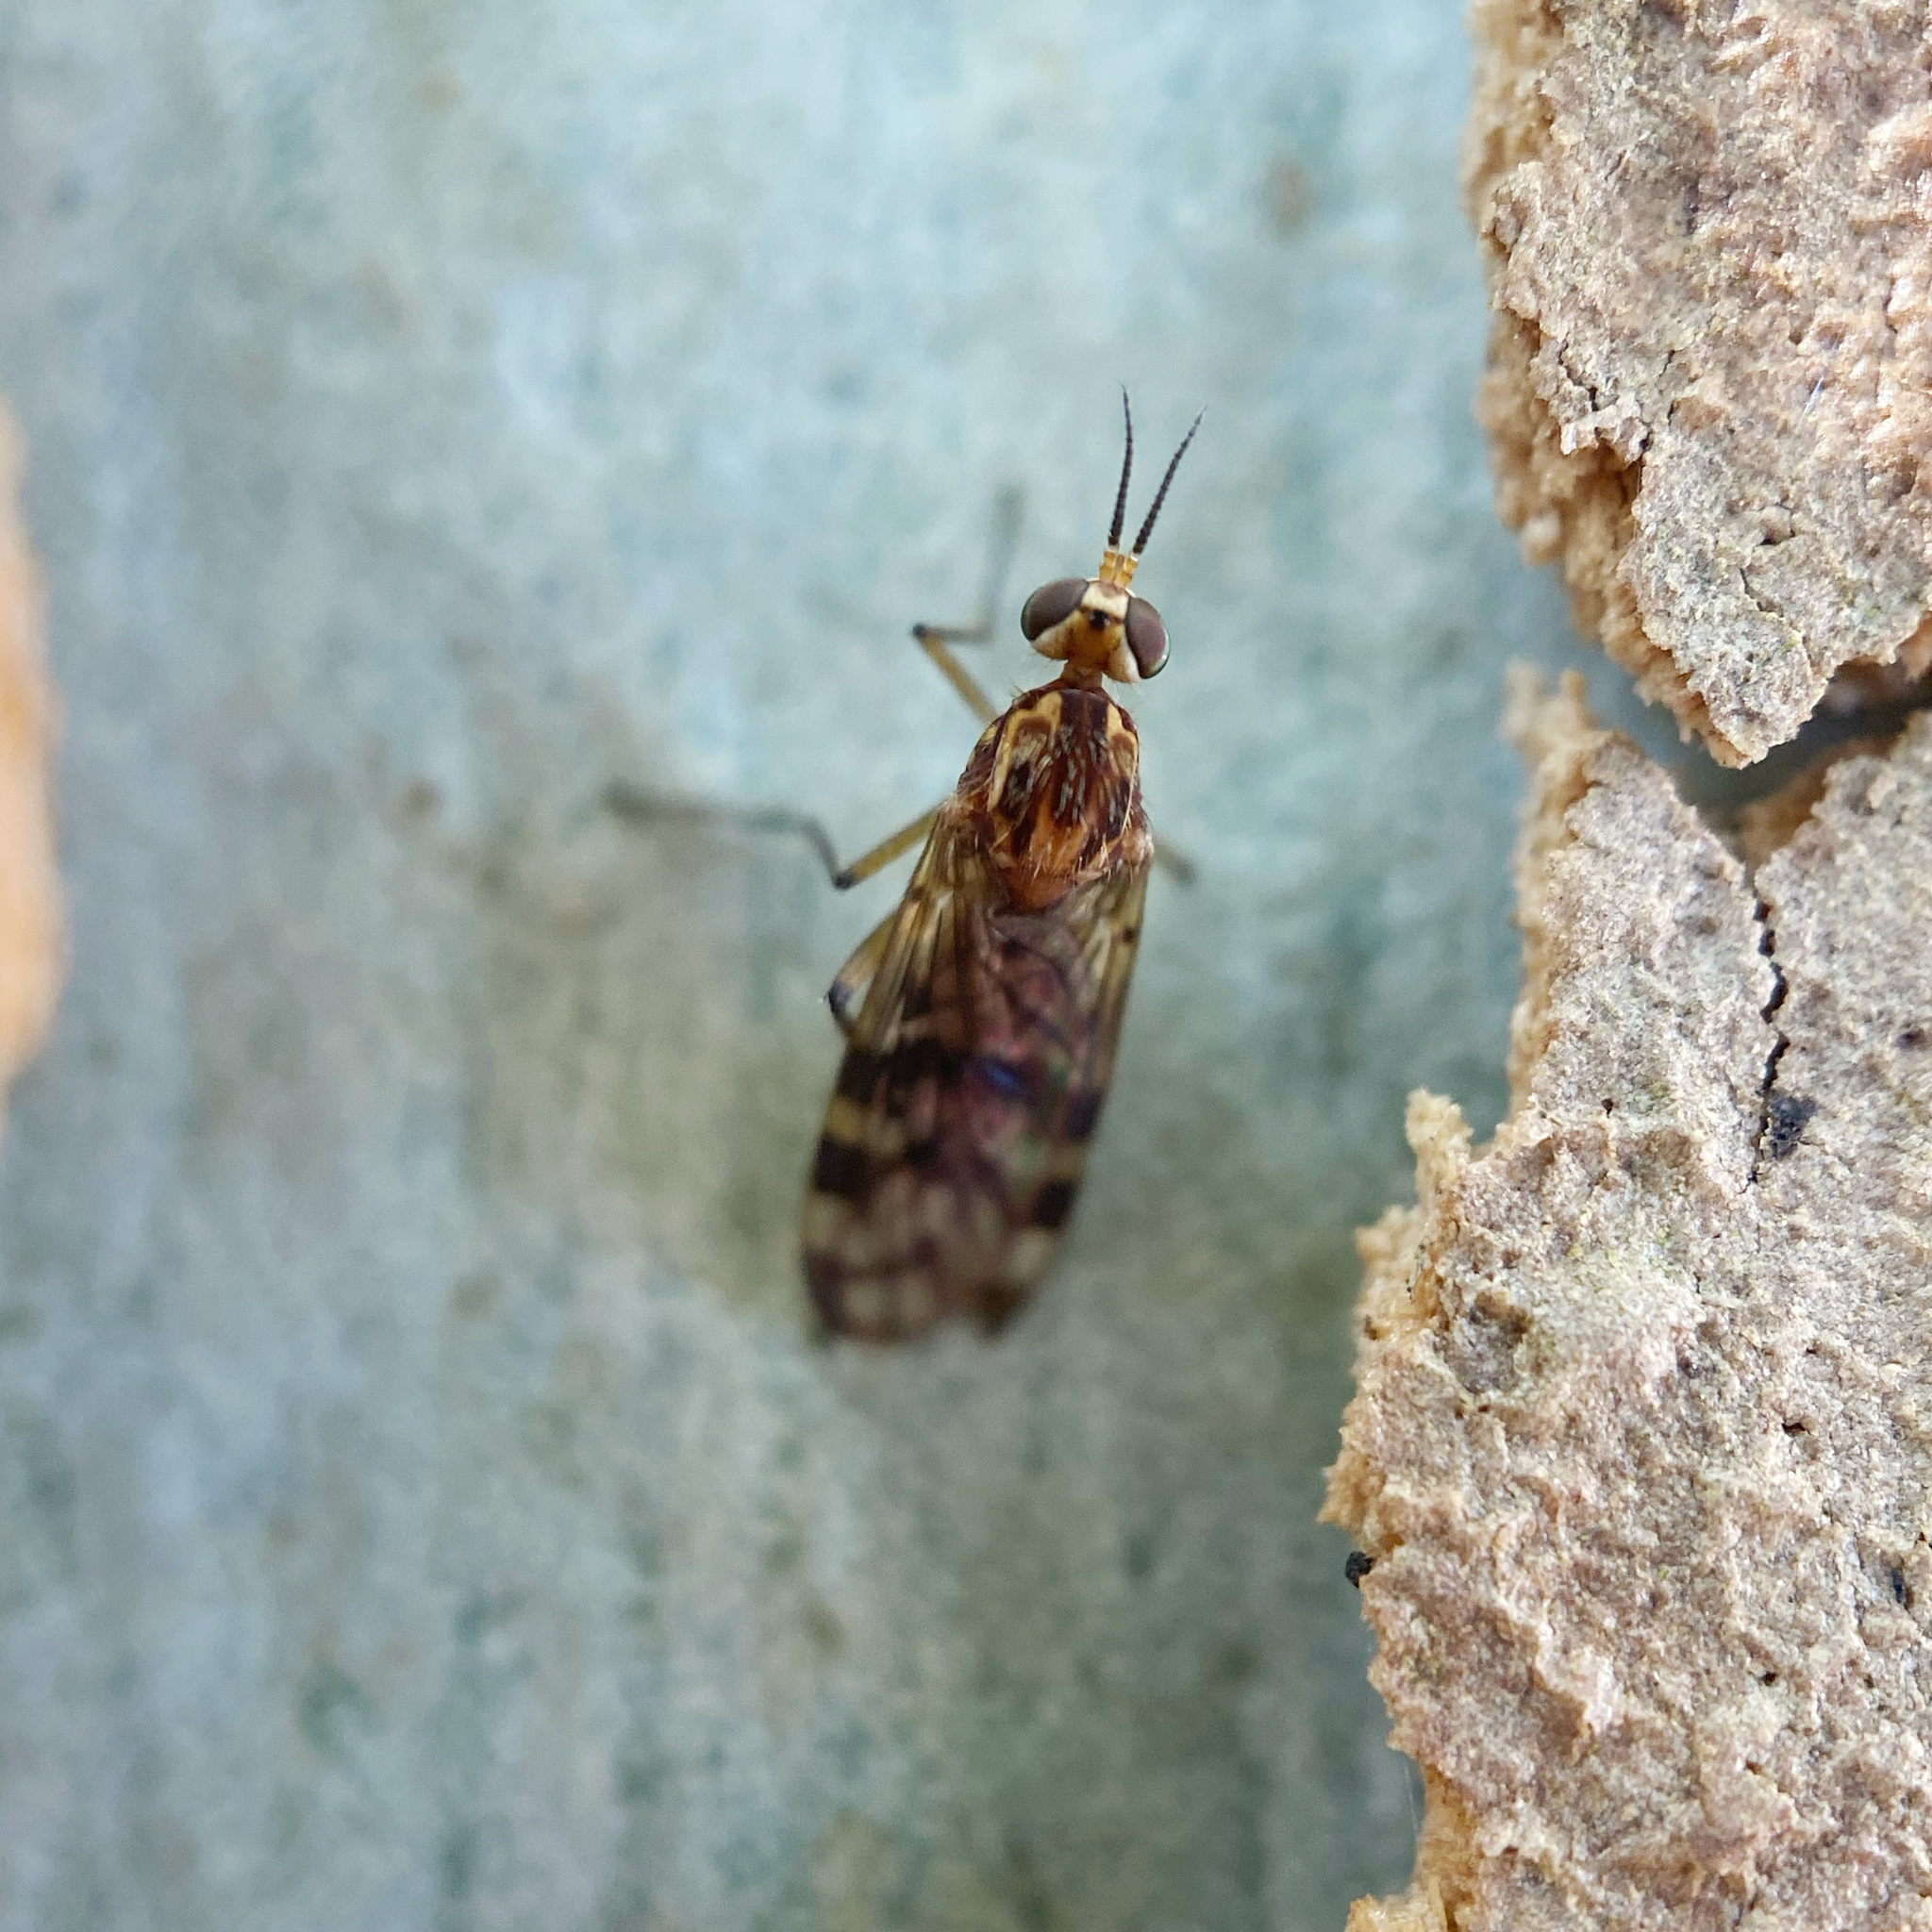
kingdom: Animalia
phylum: Arthropoda
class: Insecta
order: Diptera
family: Anisopodidae
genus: Sylvicola
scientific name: Sylvicola dubius
